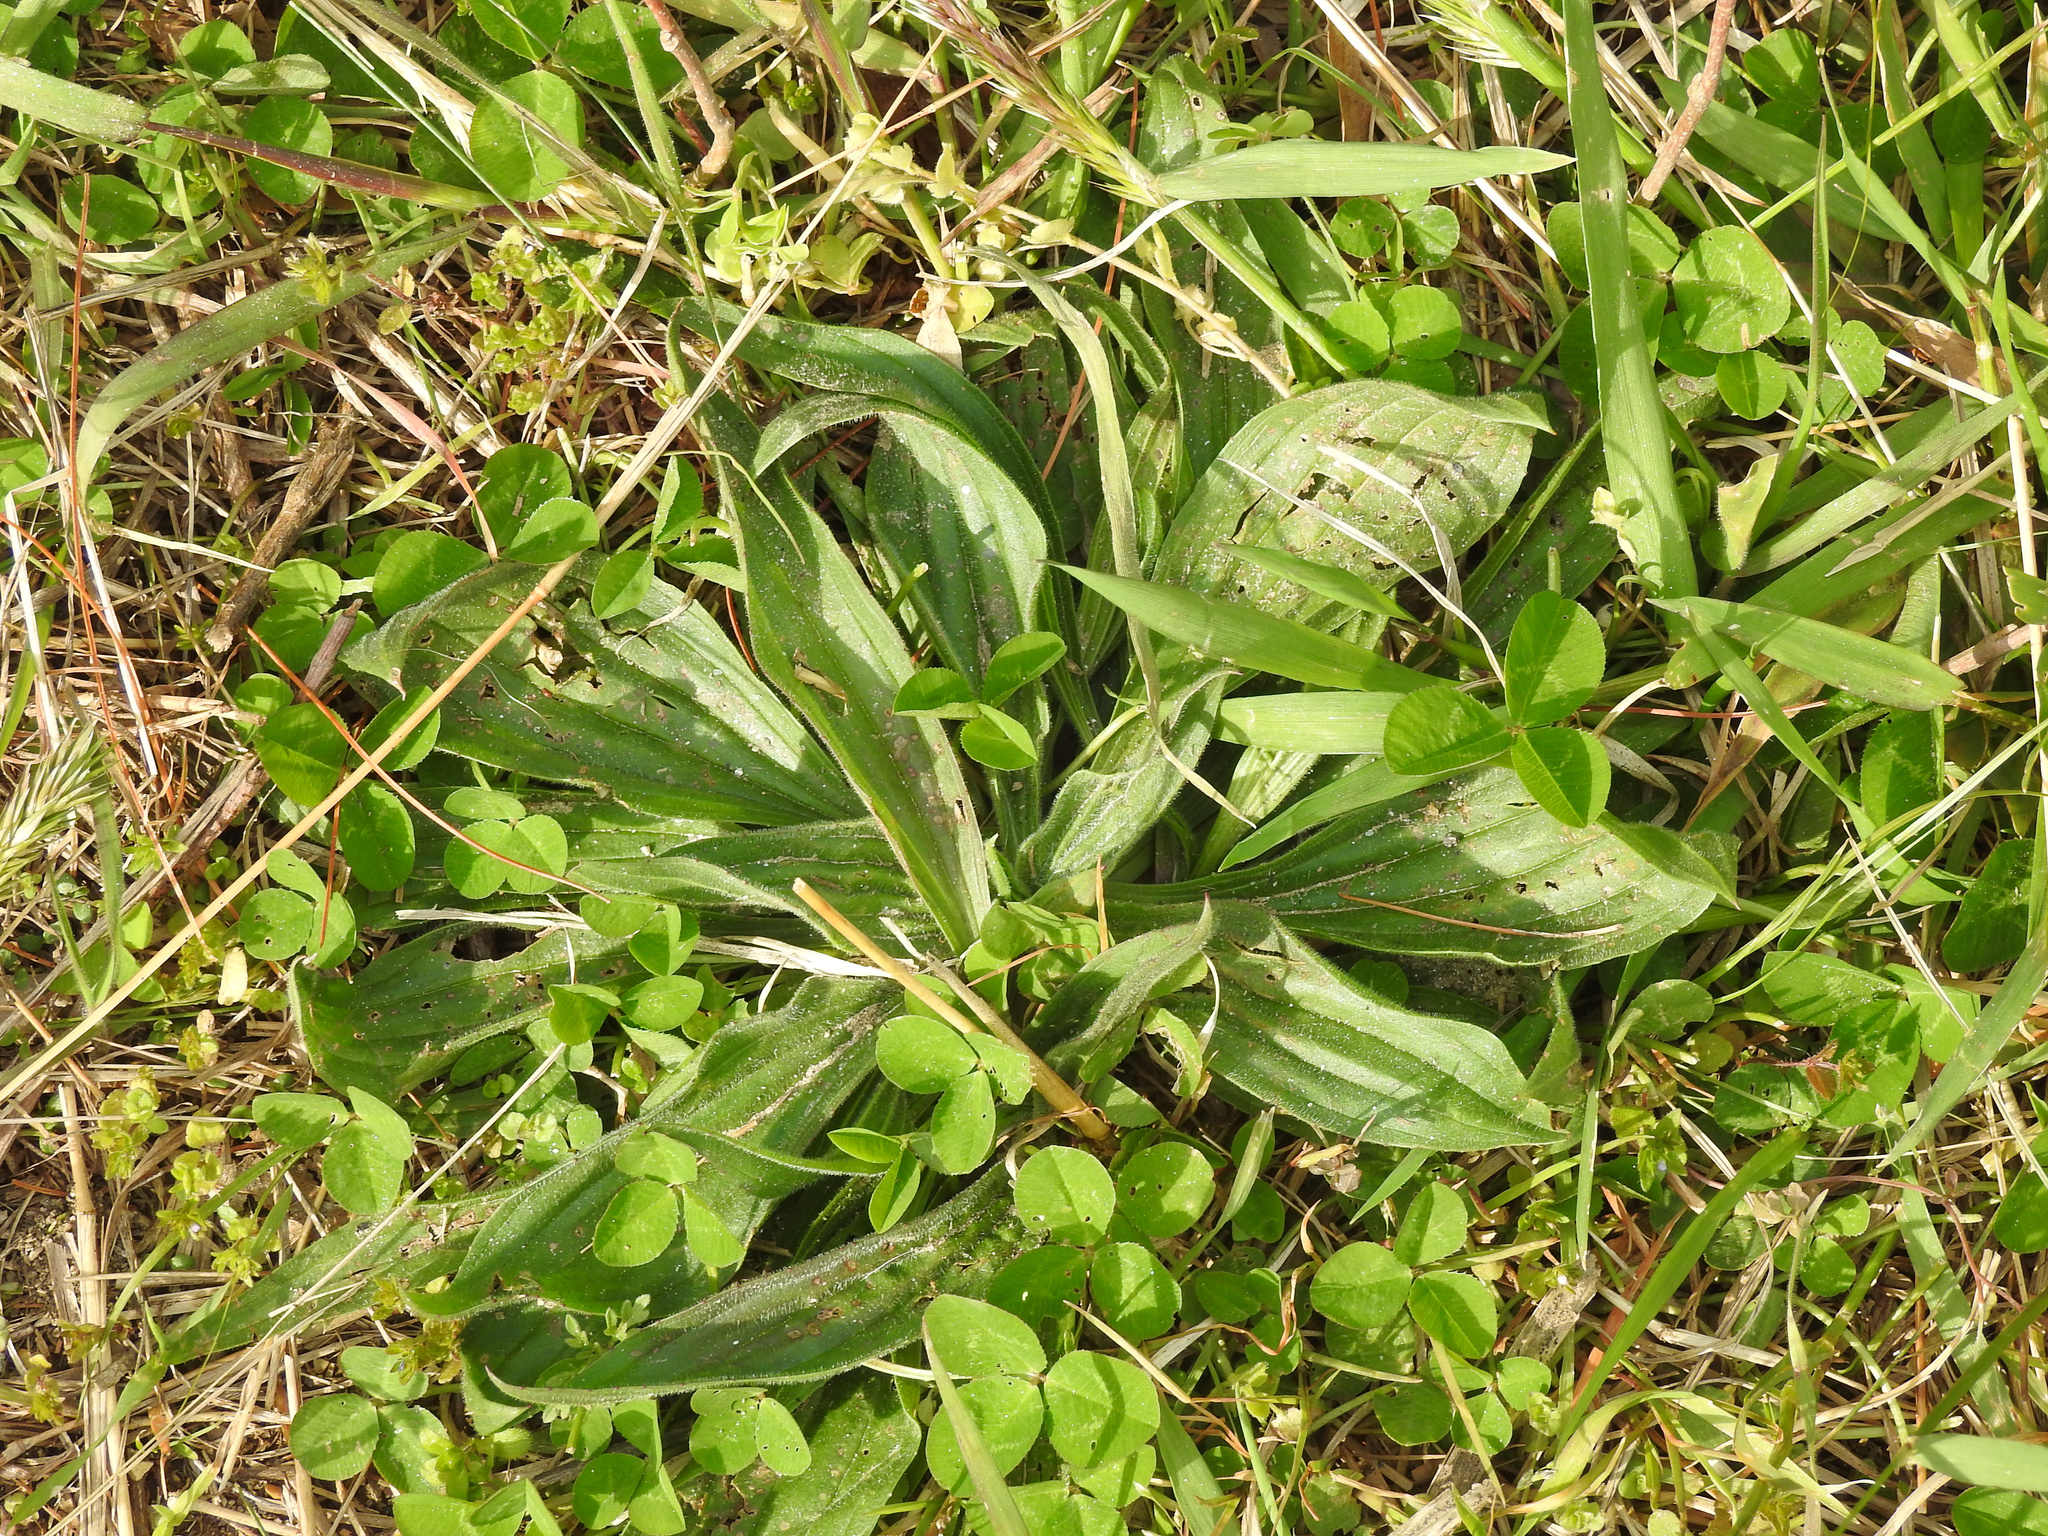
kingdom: Plantae
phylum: Tracheophyta
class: Magnoliopsida
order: Lamiales
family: Plantaginaceae
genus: Plantago
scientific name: Plantago lanceolata
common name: Ribwort plantain
